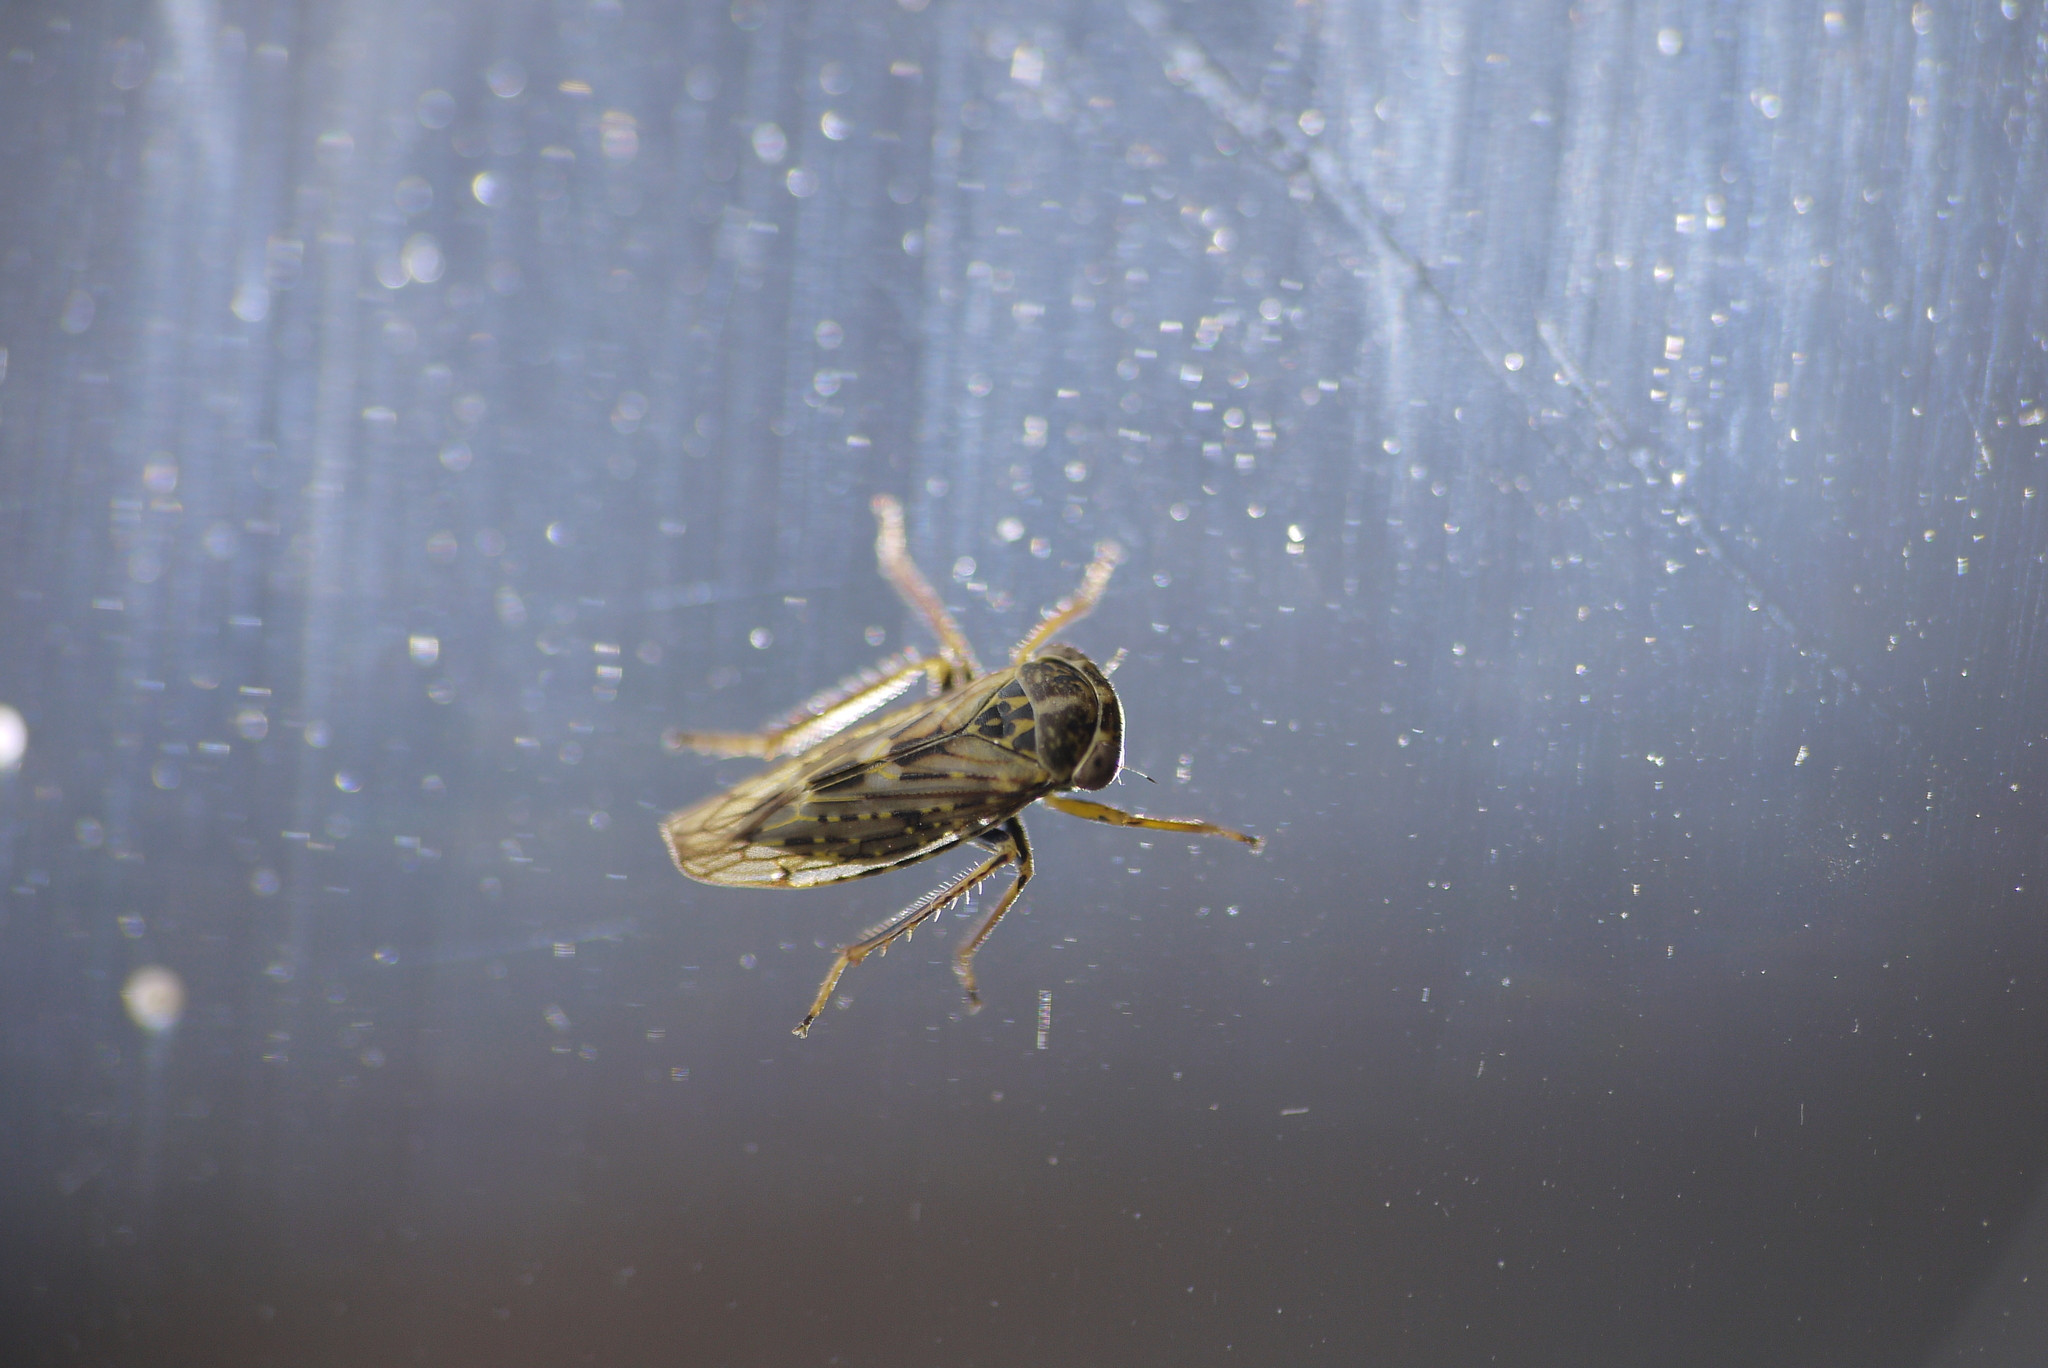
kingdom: Animalia
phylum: Arthropoda
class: Insecta
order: Hemiptera
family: Cicadellidae
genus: Idiocerus
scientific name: Idiocerus herrichii
